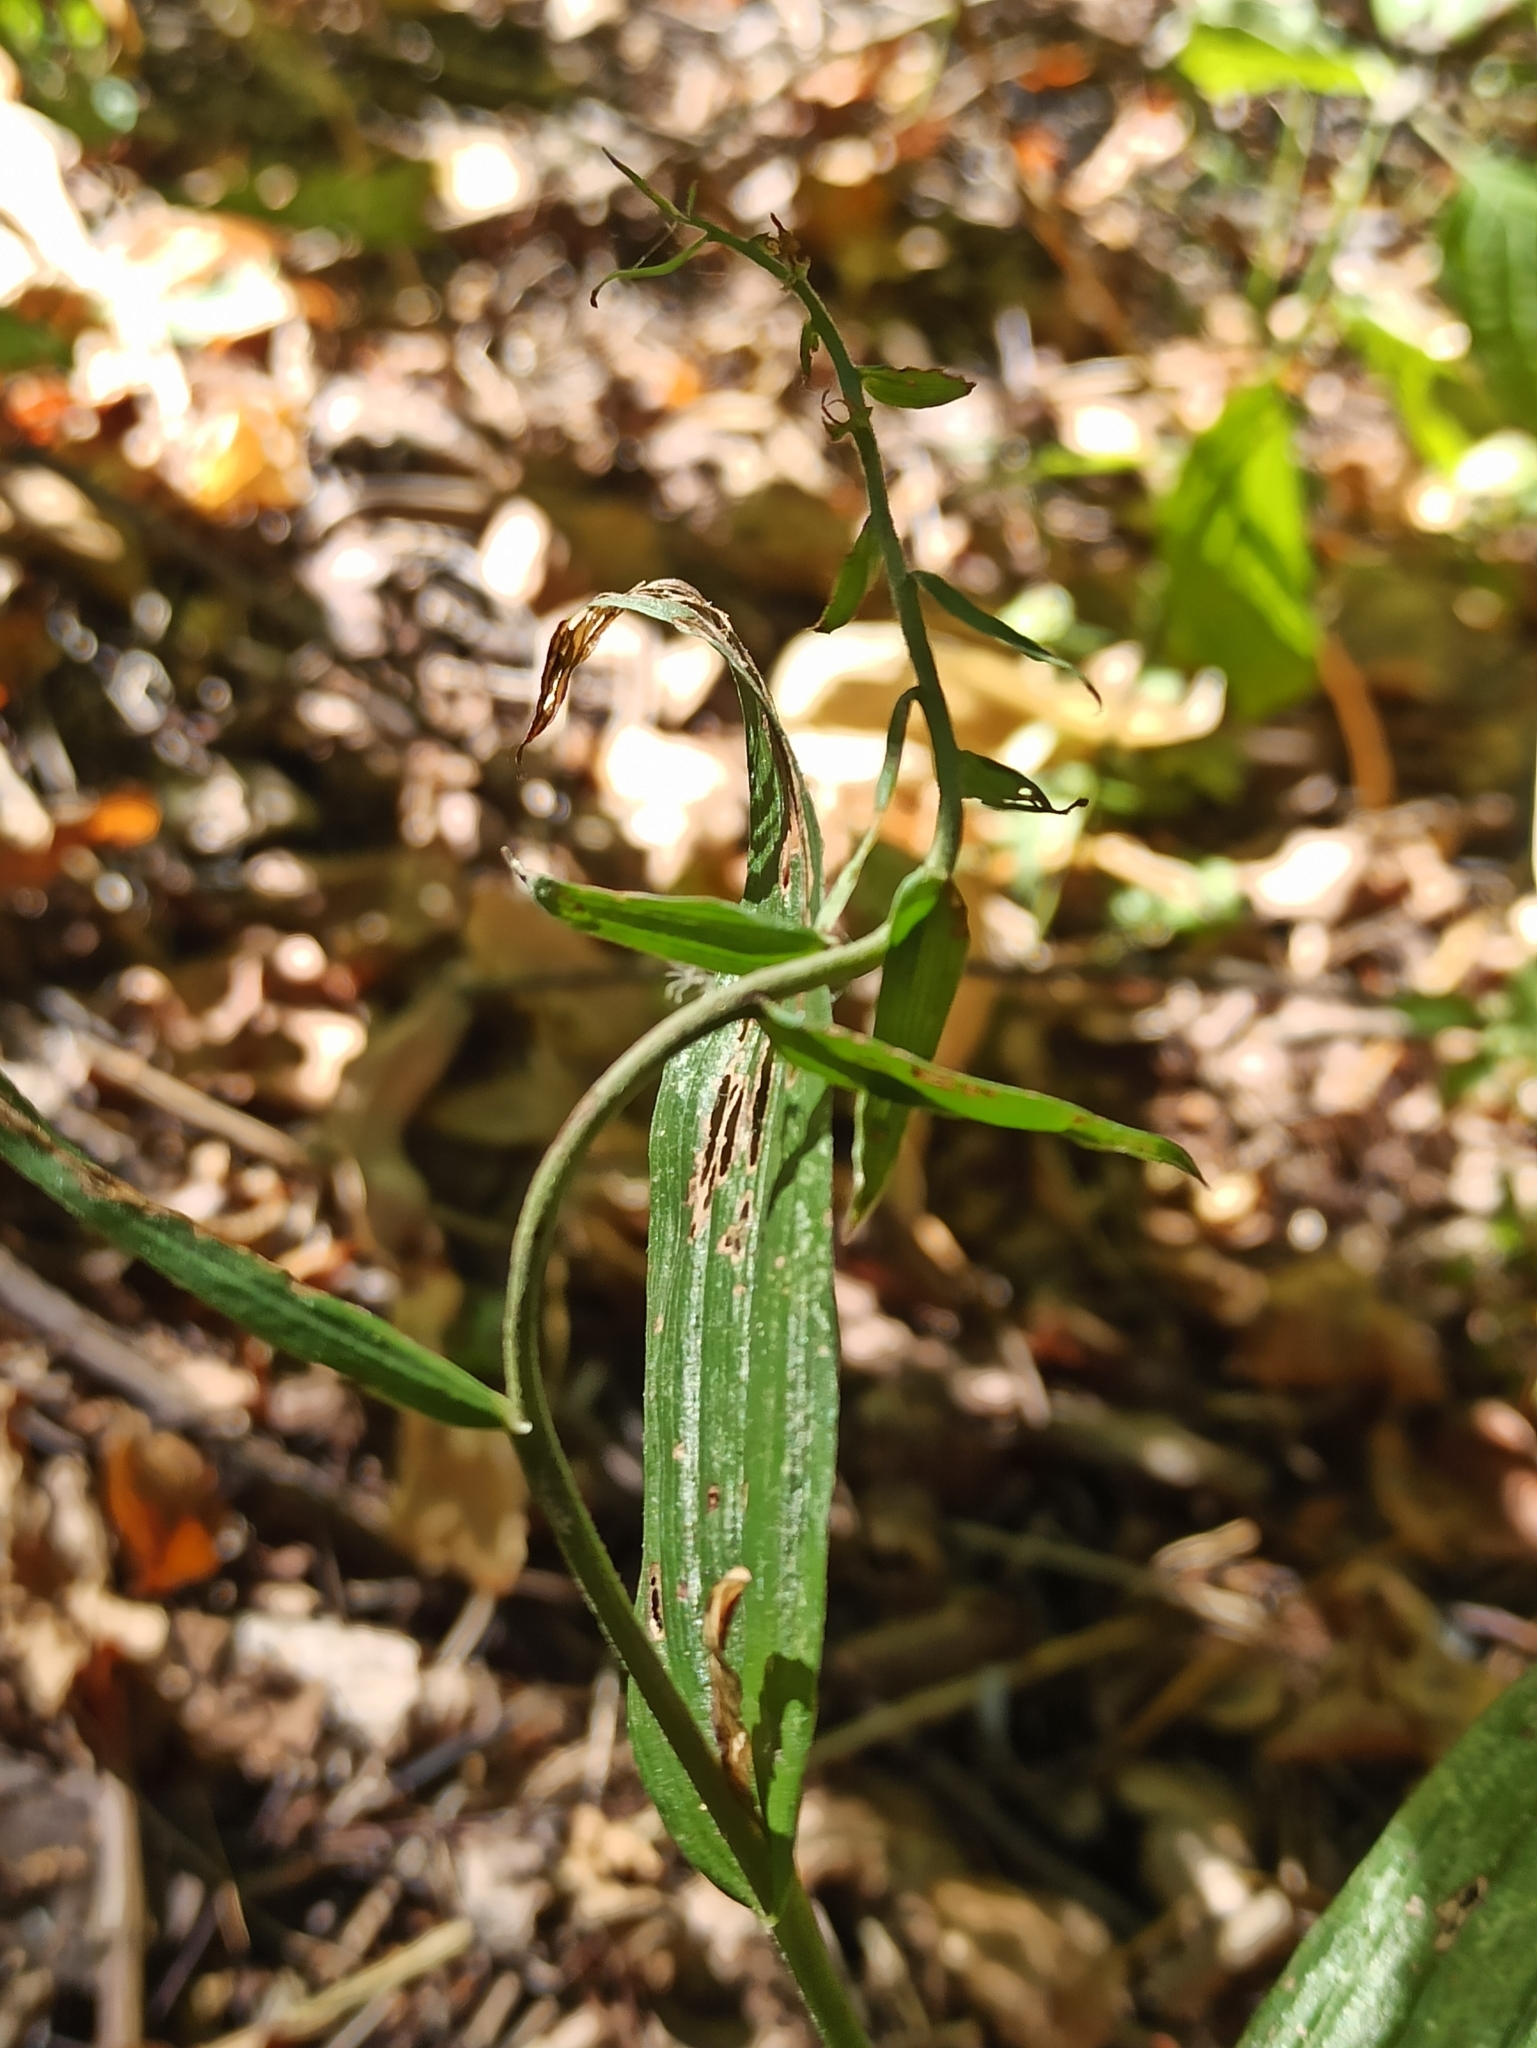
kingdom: Plantae
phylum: Tracheophyta
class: Liliopsida
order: Asparagales
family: Orchidaceae
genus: Epipactis
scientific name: Epipactis helleborine
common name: Broad-leaved helleborine
